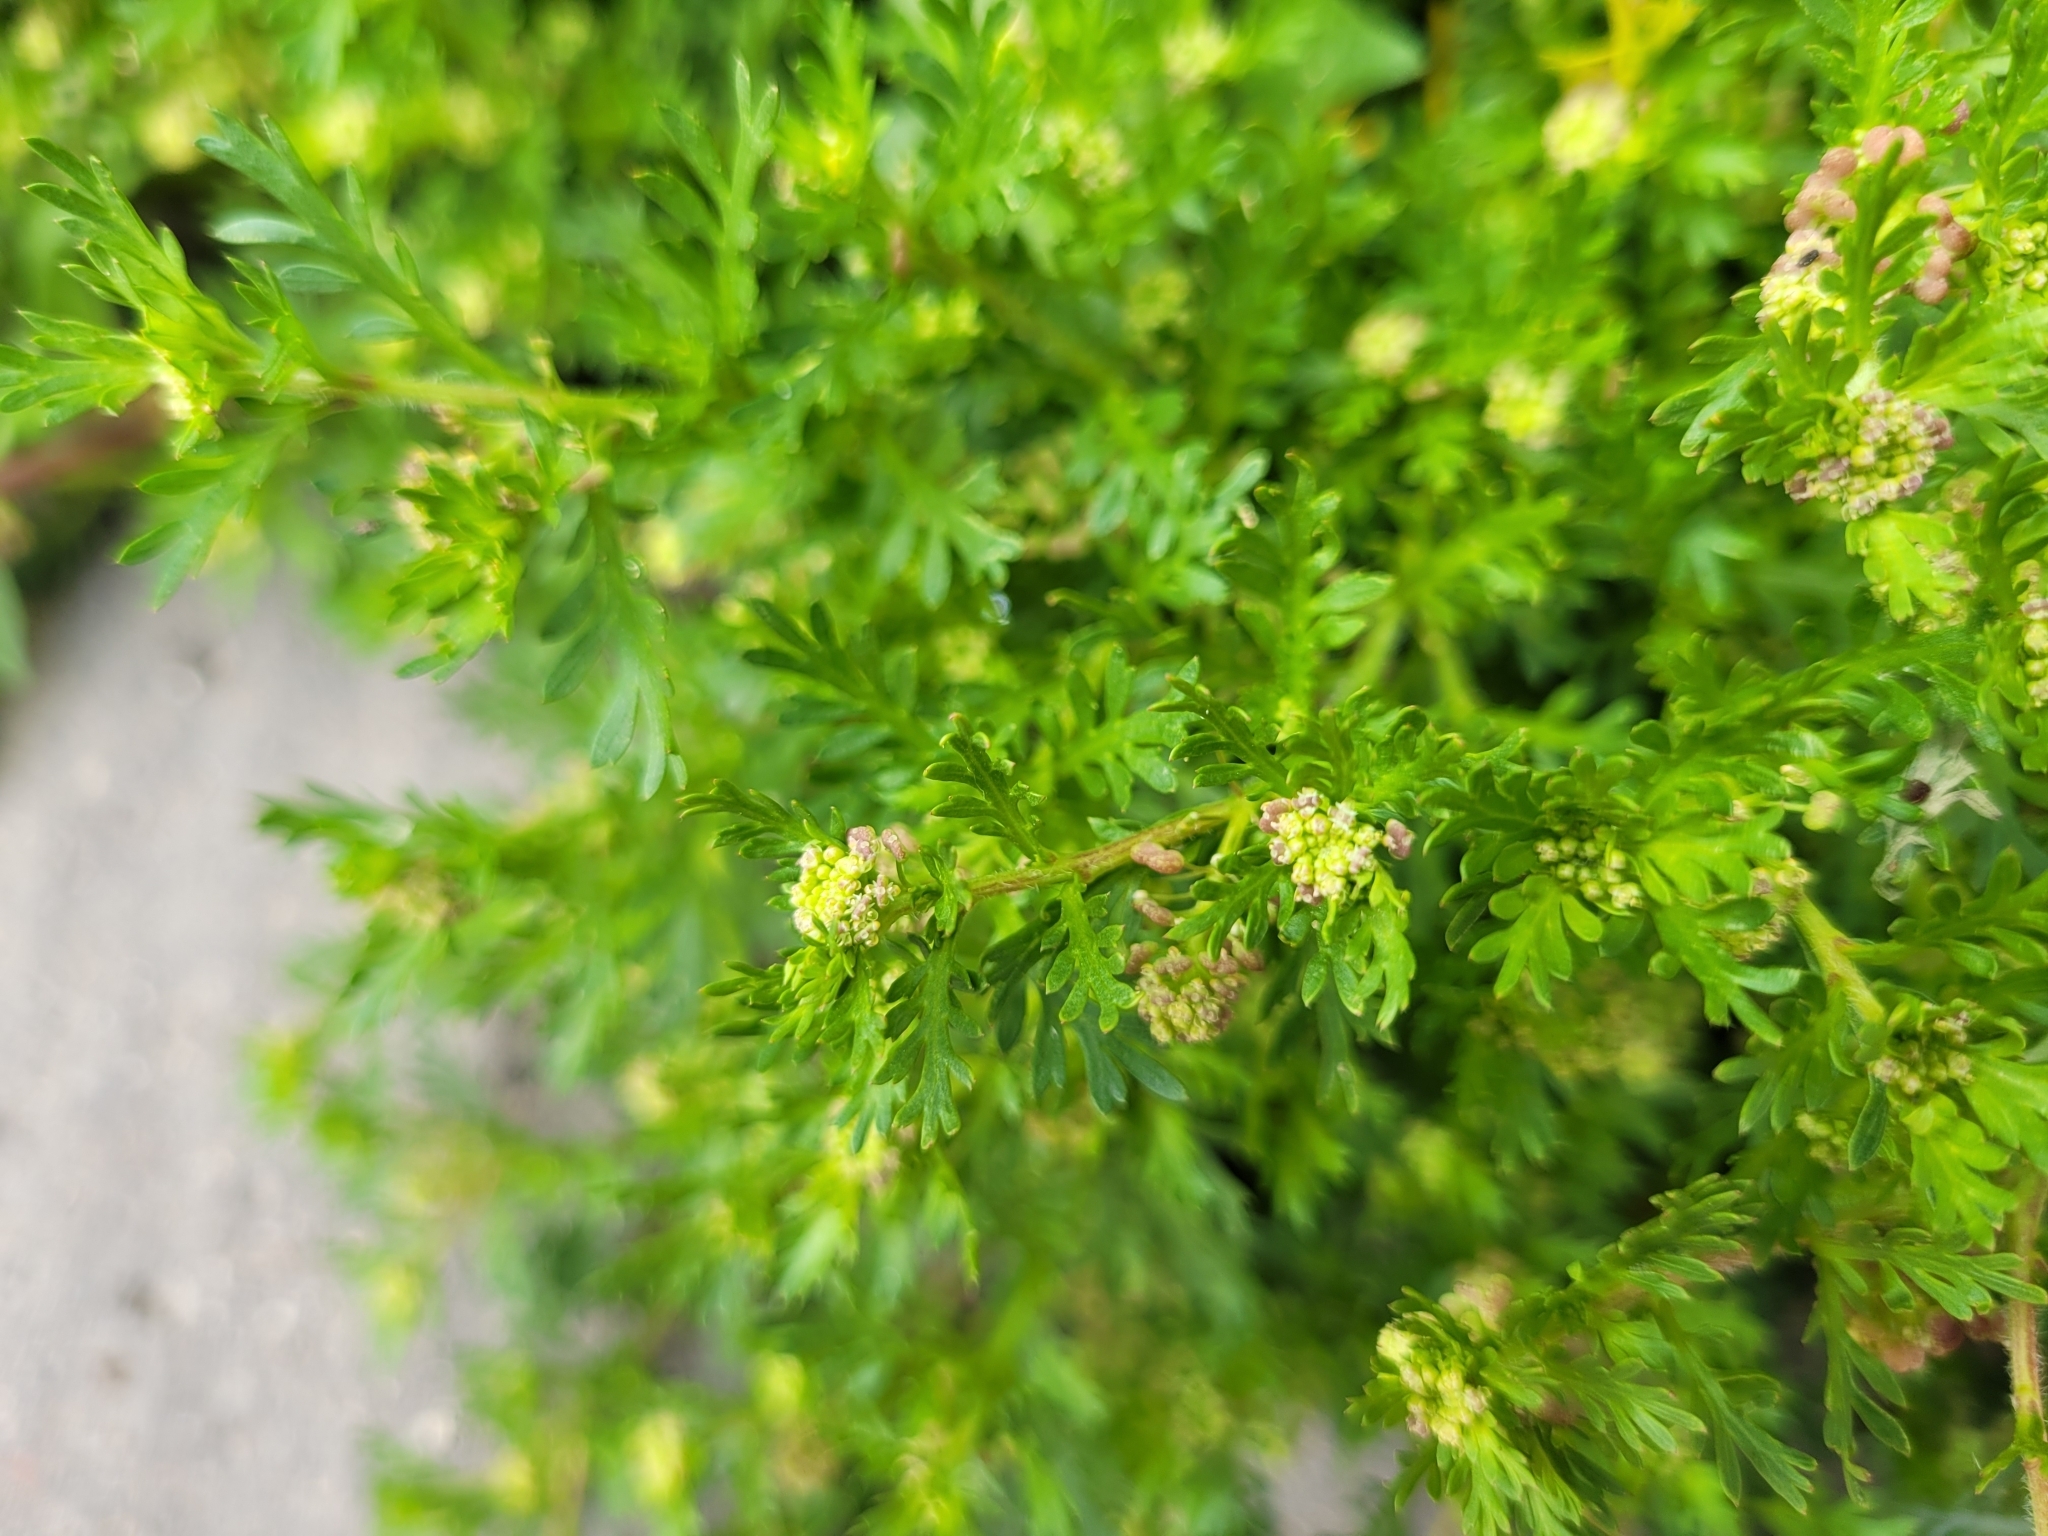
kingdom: Plantae
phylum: Tracheophyta
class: Magnoliopsida
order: Brassicales
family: Brassicaceae
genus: Lepidium
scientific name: Lepidium didymum
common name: Lesser swinecress
